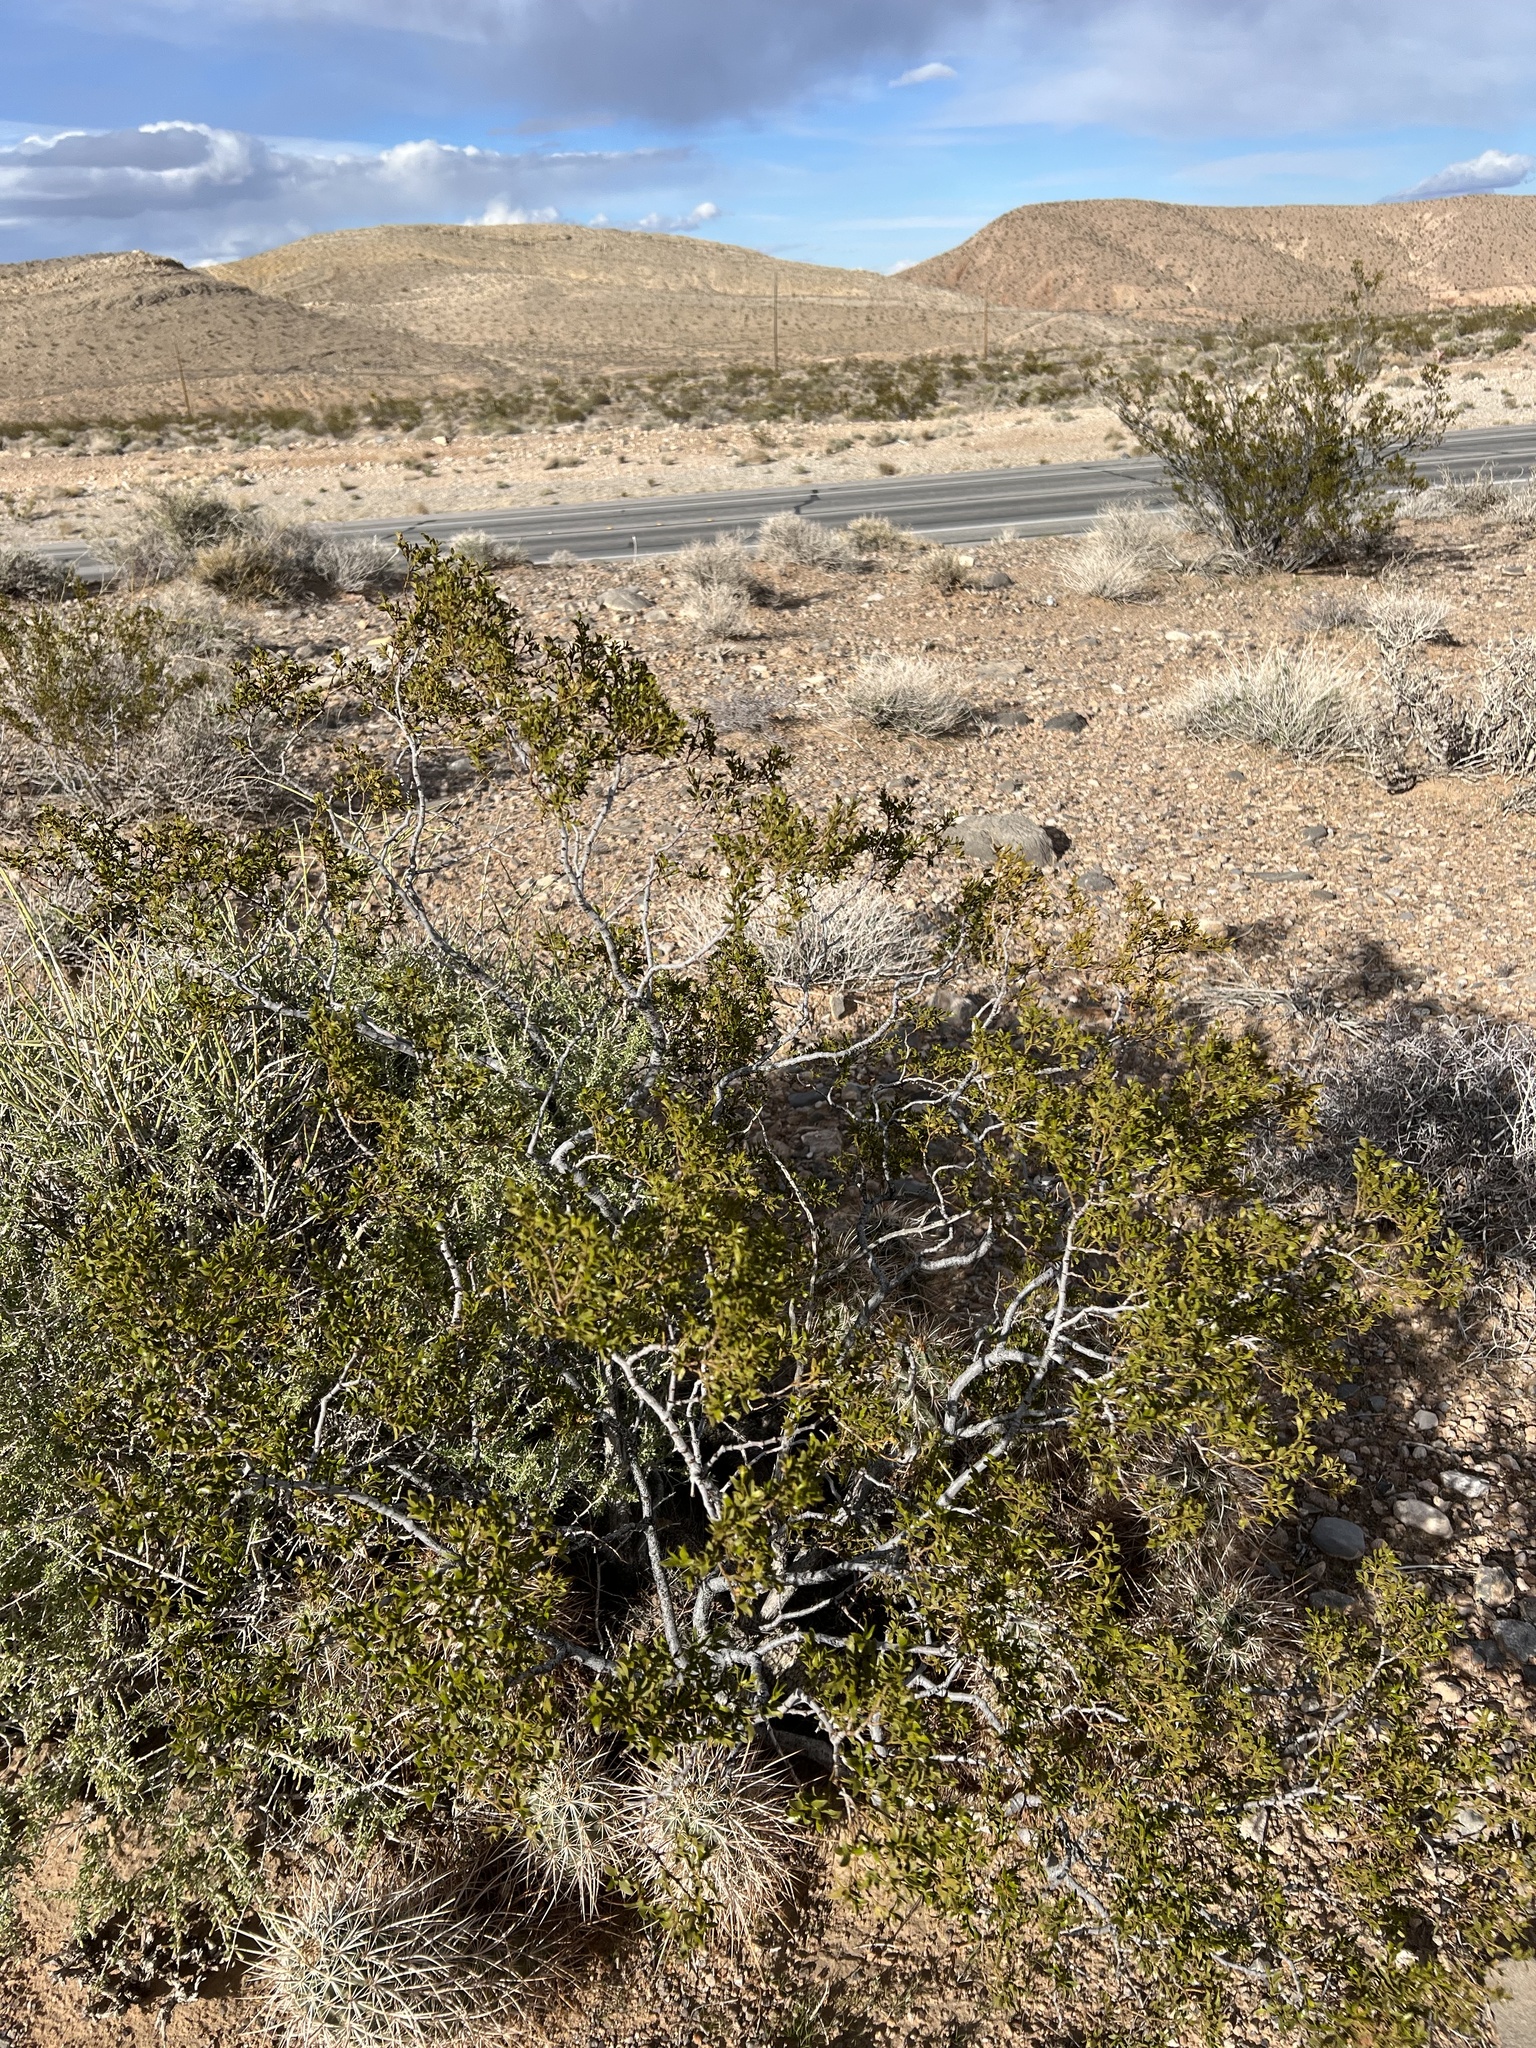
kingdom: Plantae
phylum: Tracheophyta
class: Magnoliopsida
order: Zygophyllales
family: Zygophyllaceae
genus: Larrea
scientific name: Larrea tridentata
